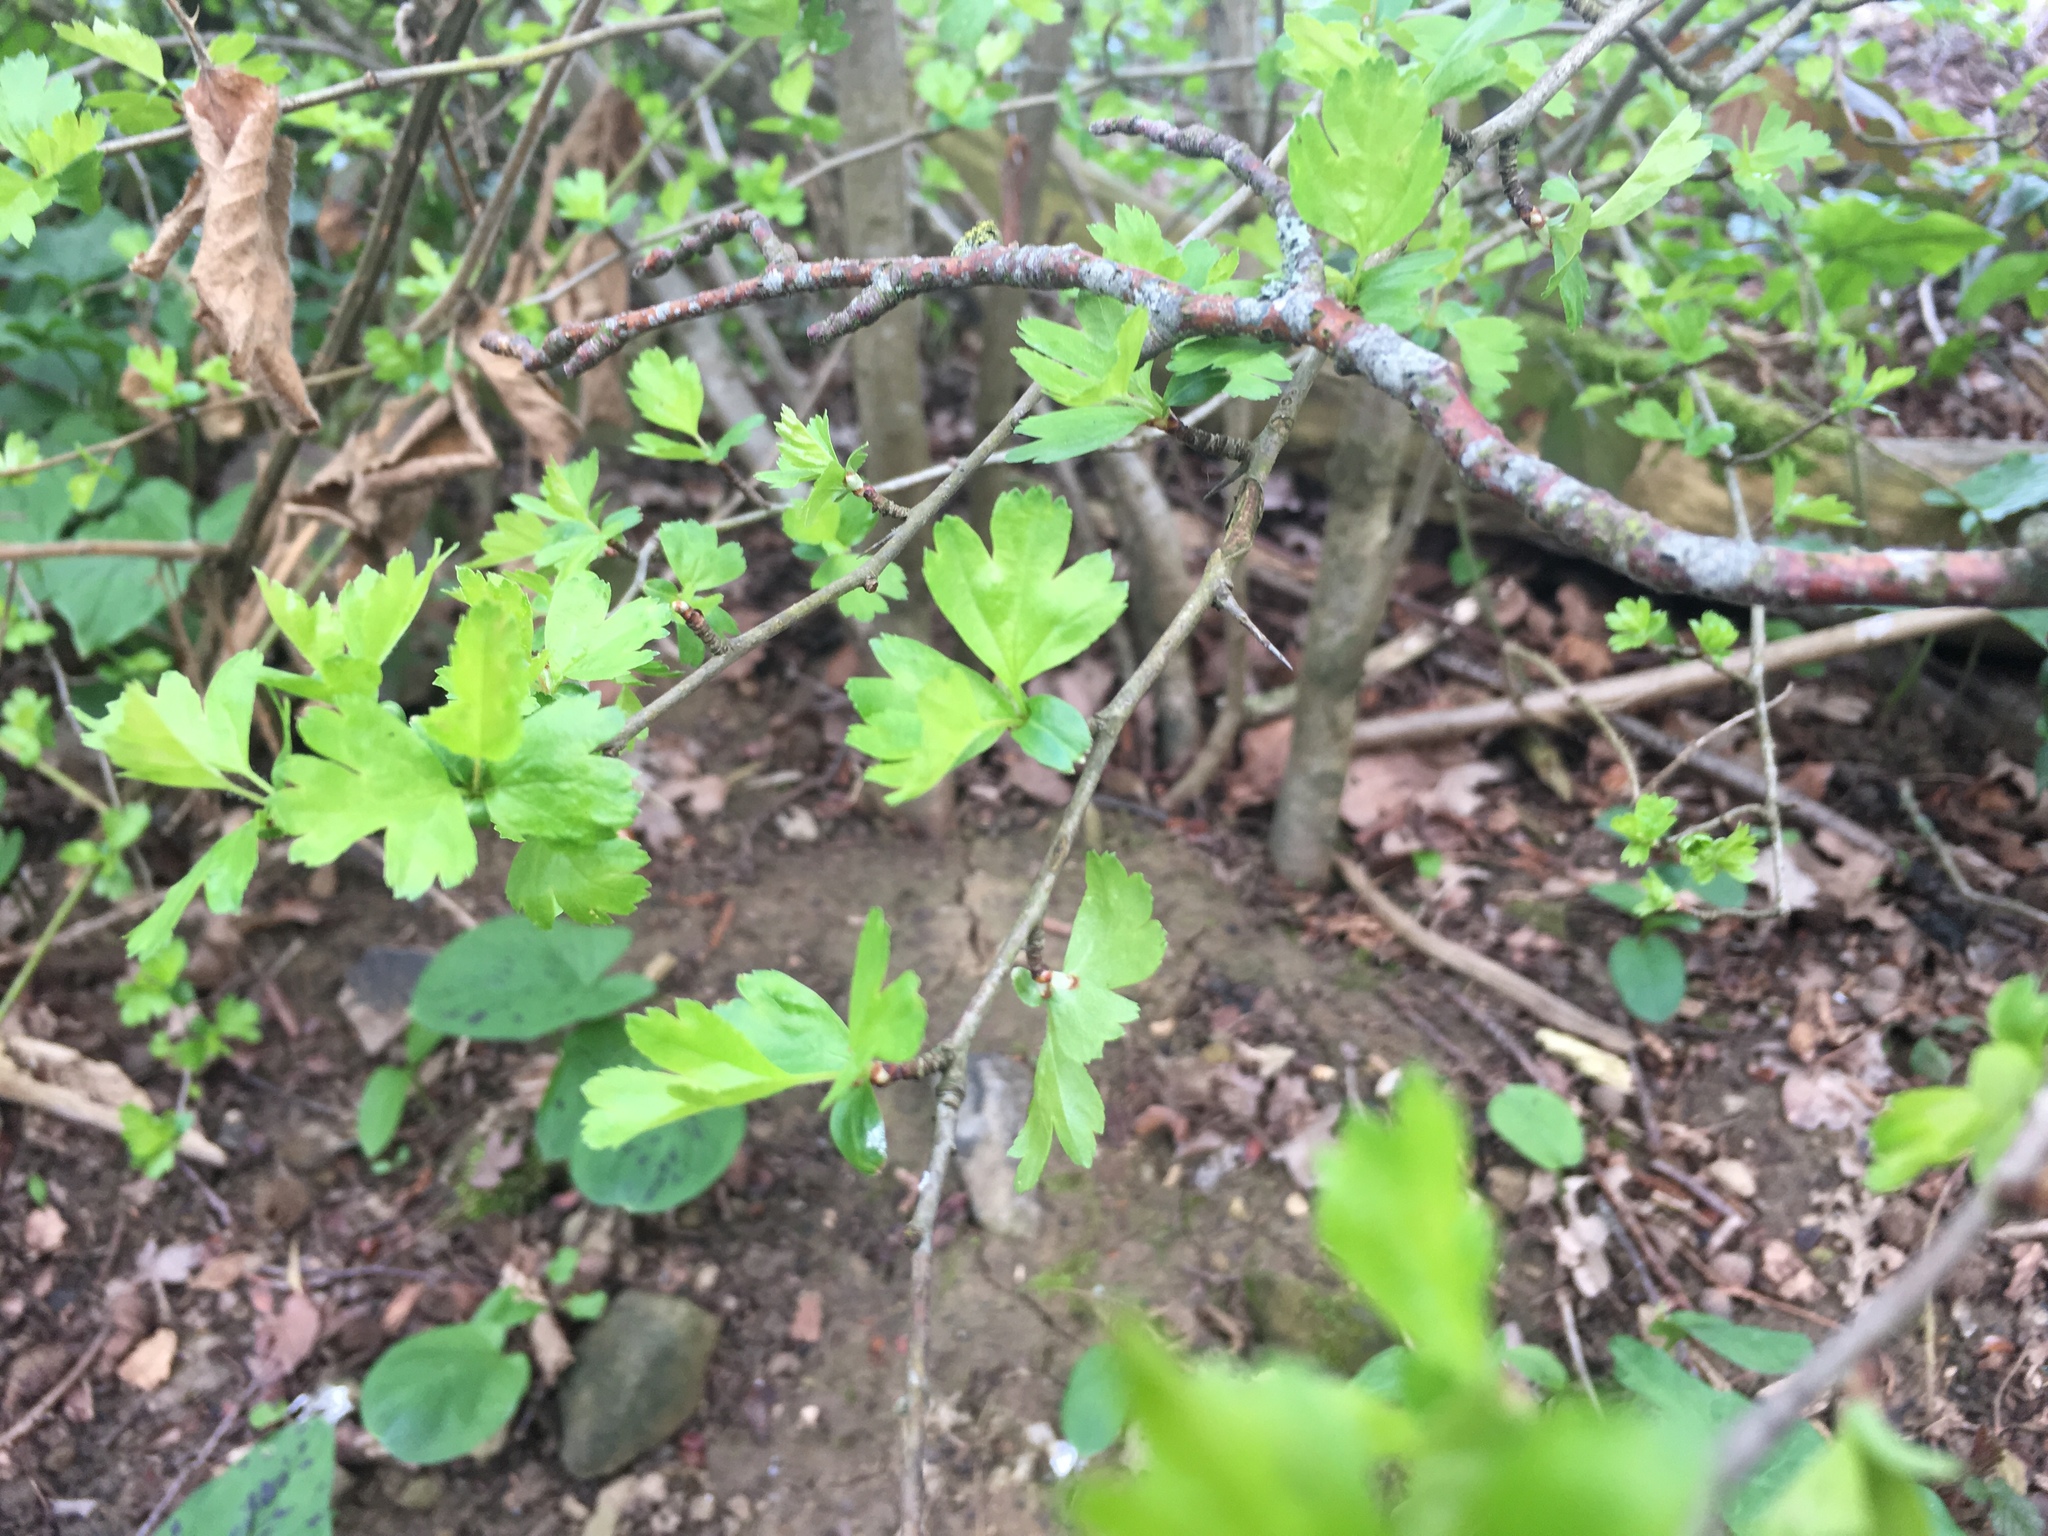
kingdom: Plantae
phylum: Tracheophyta
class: Magnoliopsida
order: Rosales
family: Rosaceae
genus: Crataegus
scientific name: Crataegus monogyna
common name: Hawthorn
